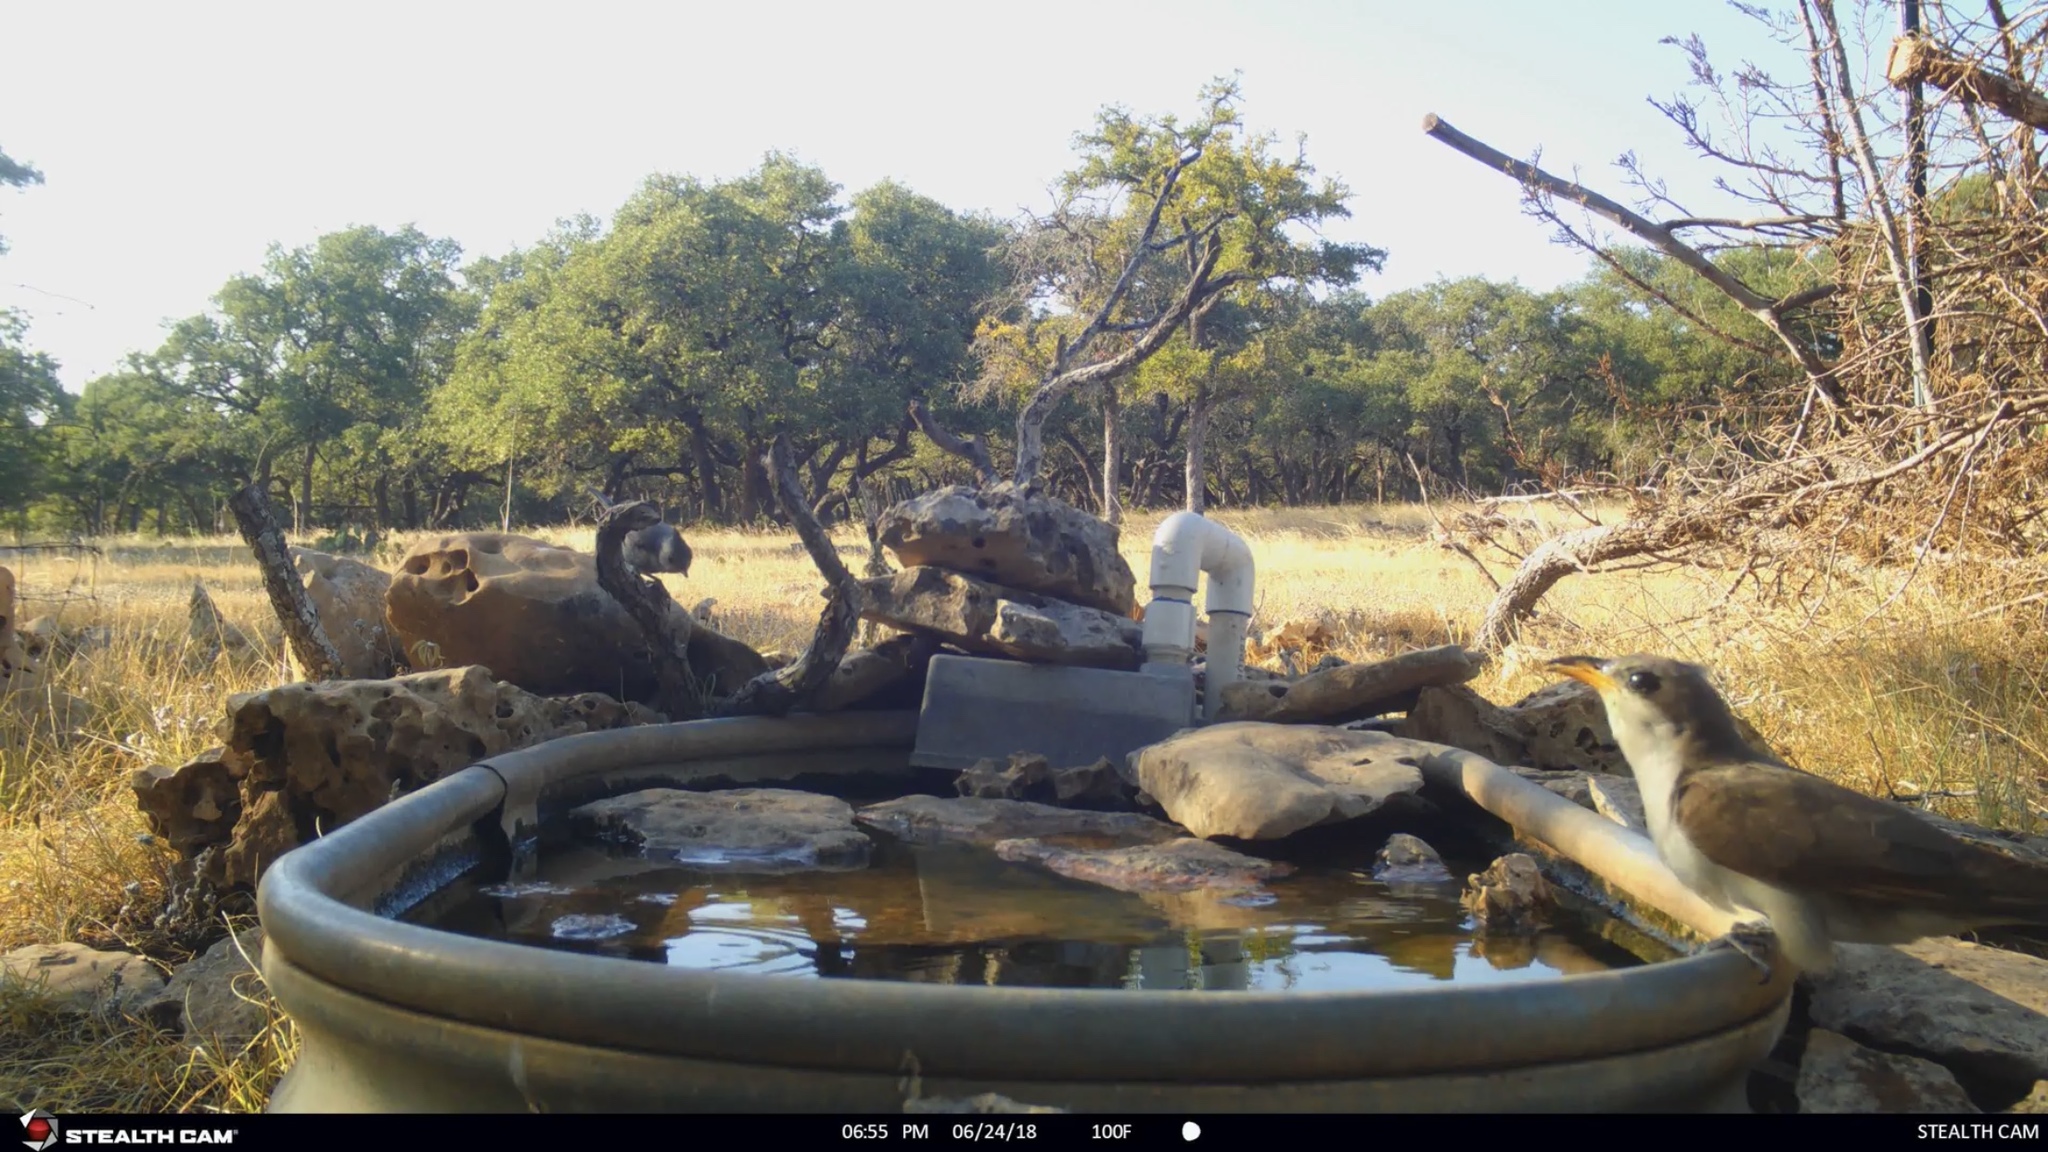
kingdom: Animalia
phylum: Chordata
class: Aves
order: Cuculiformes
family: Cuculidae
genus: Coccyzus
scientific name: Coccyzus americanus
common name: Yellow-billed cuckoo
